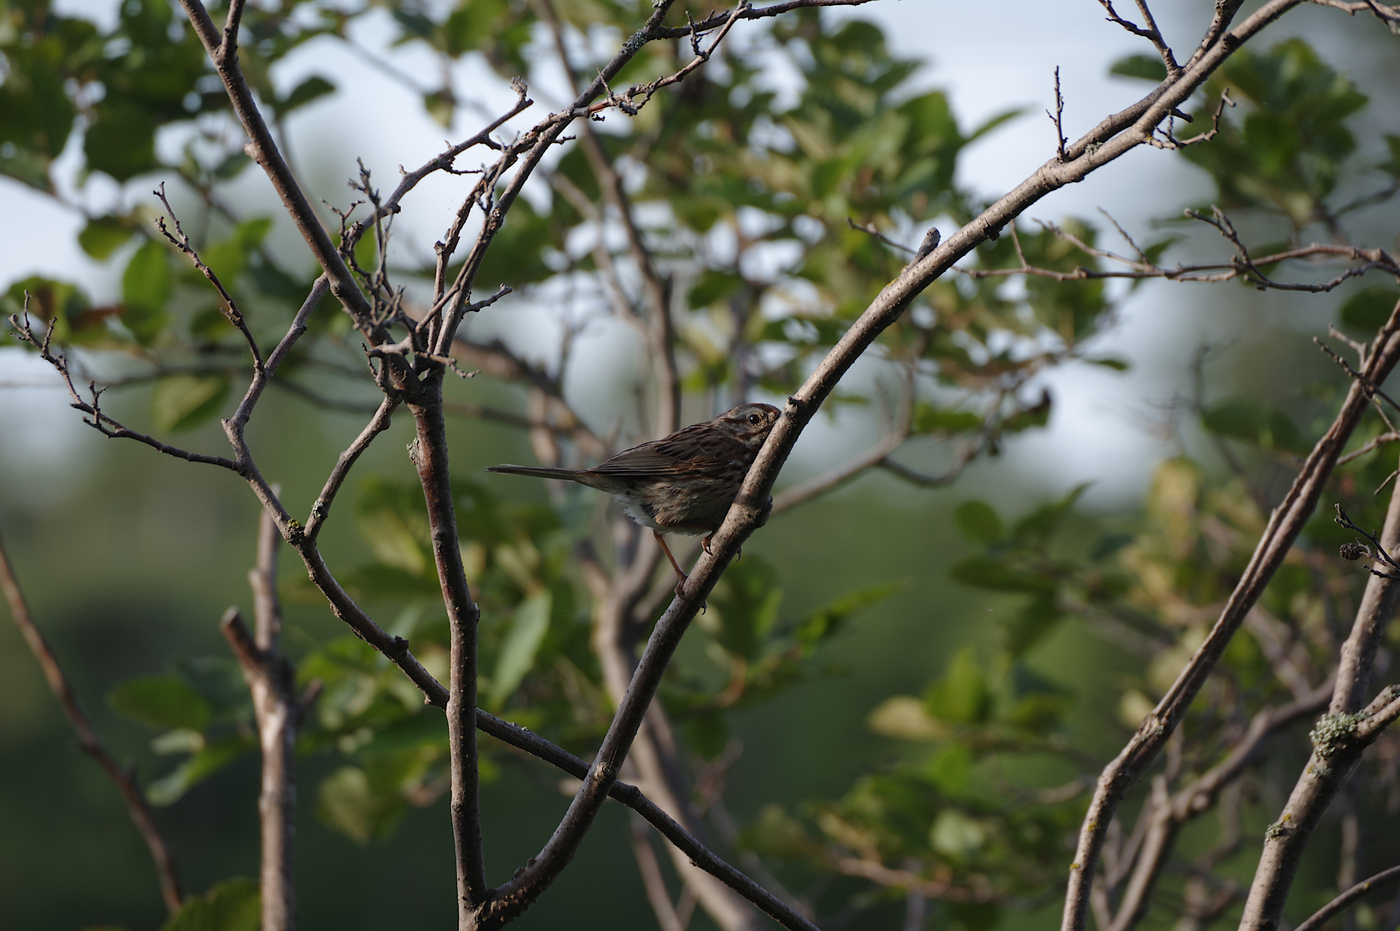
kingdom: Animalia
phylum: Chordata
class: Aves
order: Passeriformes
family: Passerellidae
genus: Melospiza
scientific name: Melospiza melodia
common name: Song sparrow
